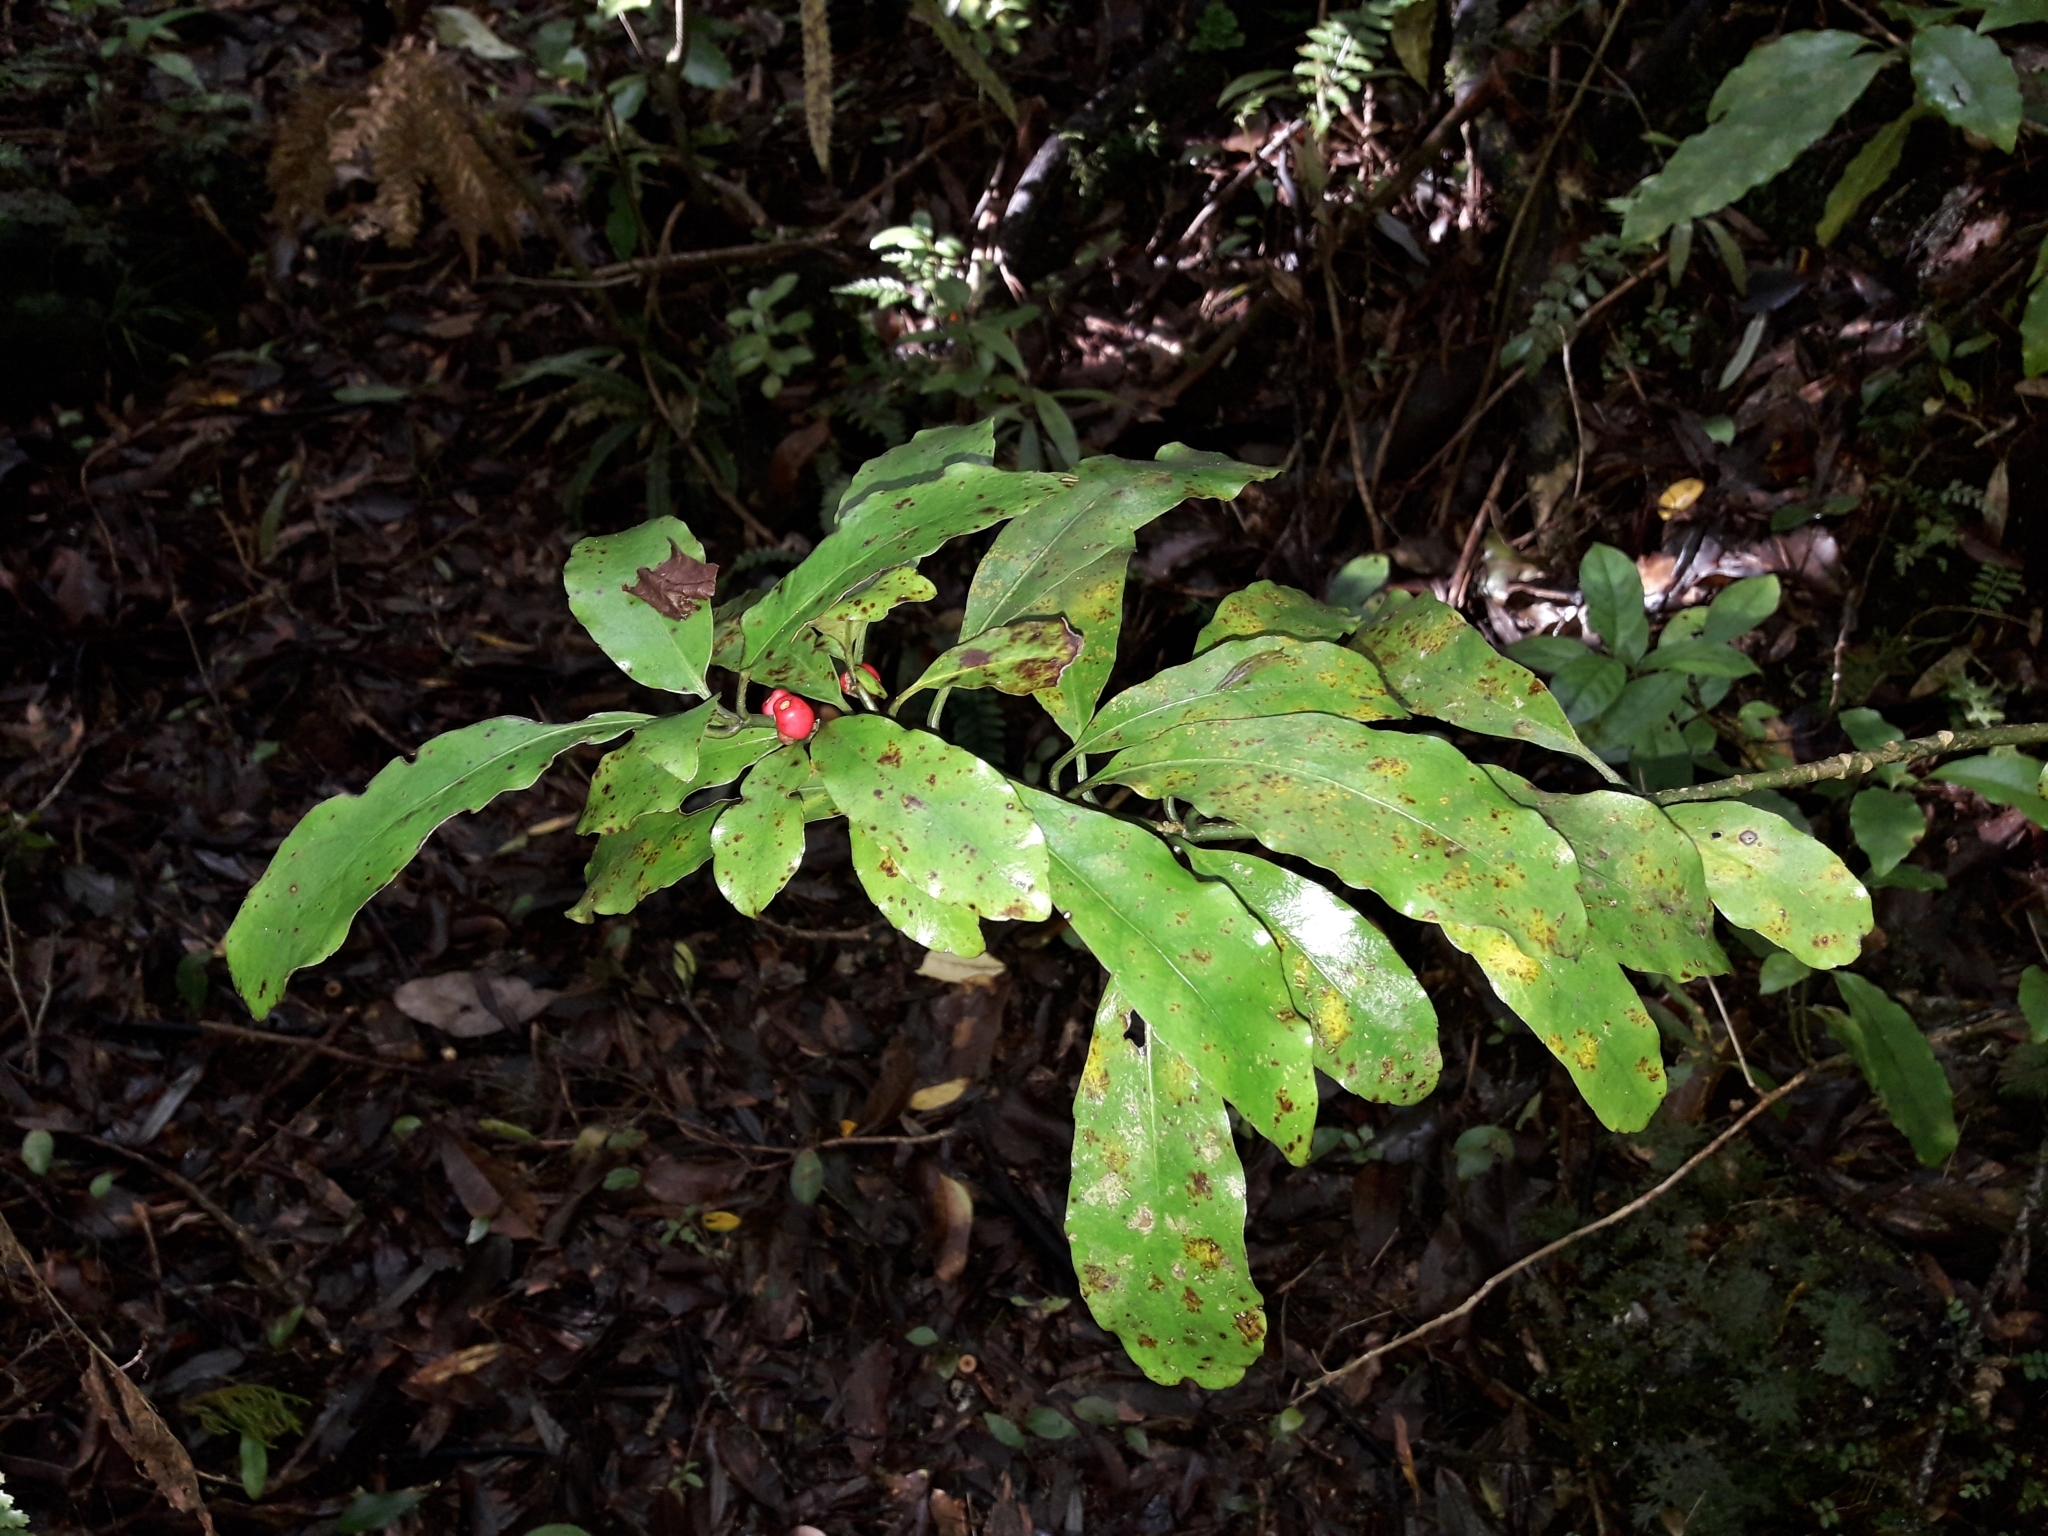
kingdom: Plantae
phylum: Tracheophyta
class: Magnoliopsida
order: Asterales
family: Alseuosmiaceae
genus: Alseuosmia
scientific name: Alseuosmia macrophylla
